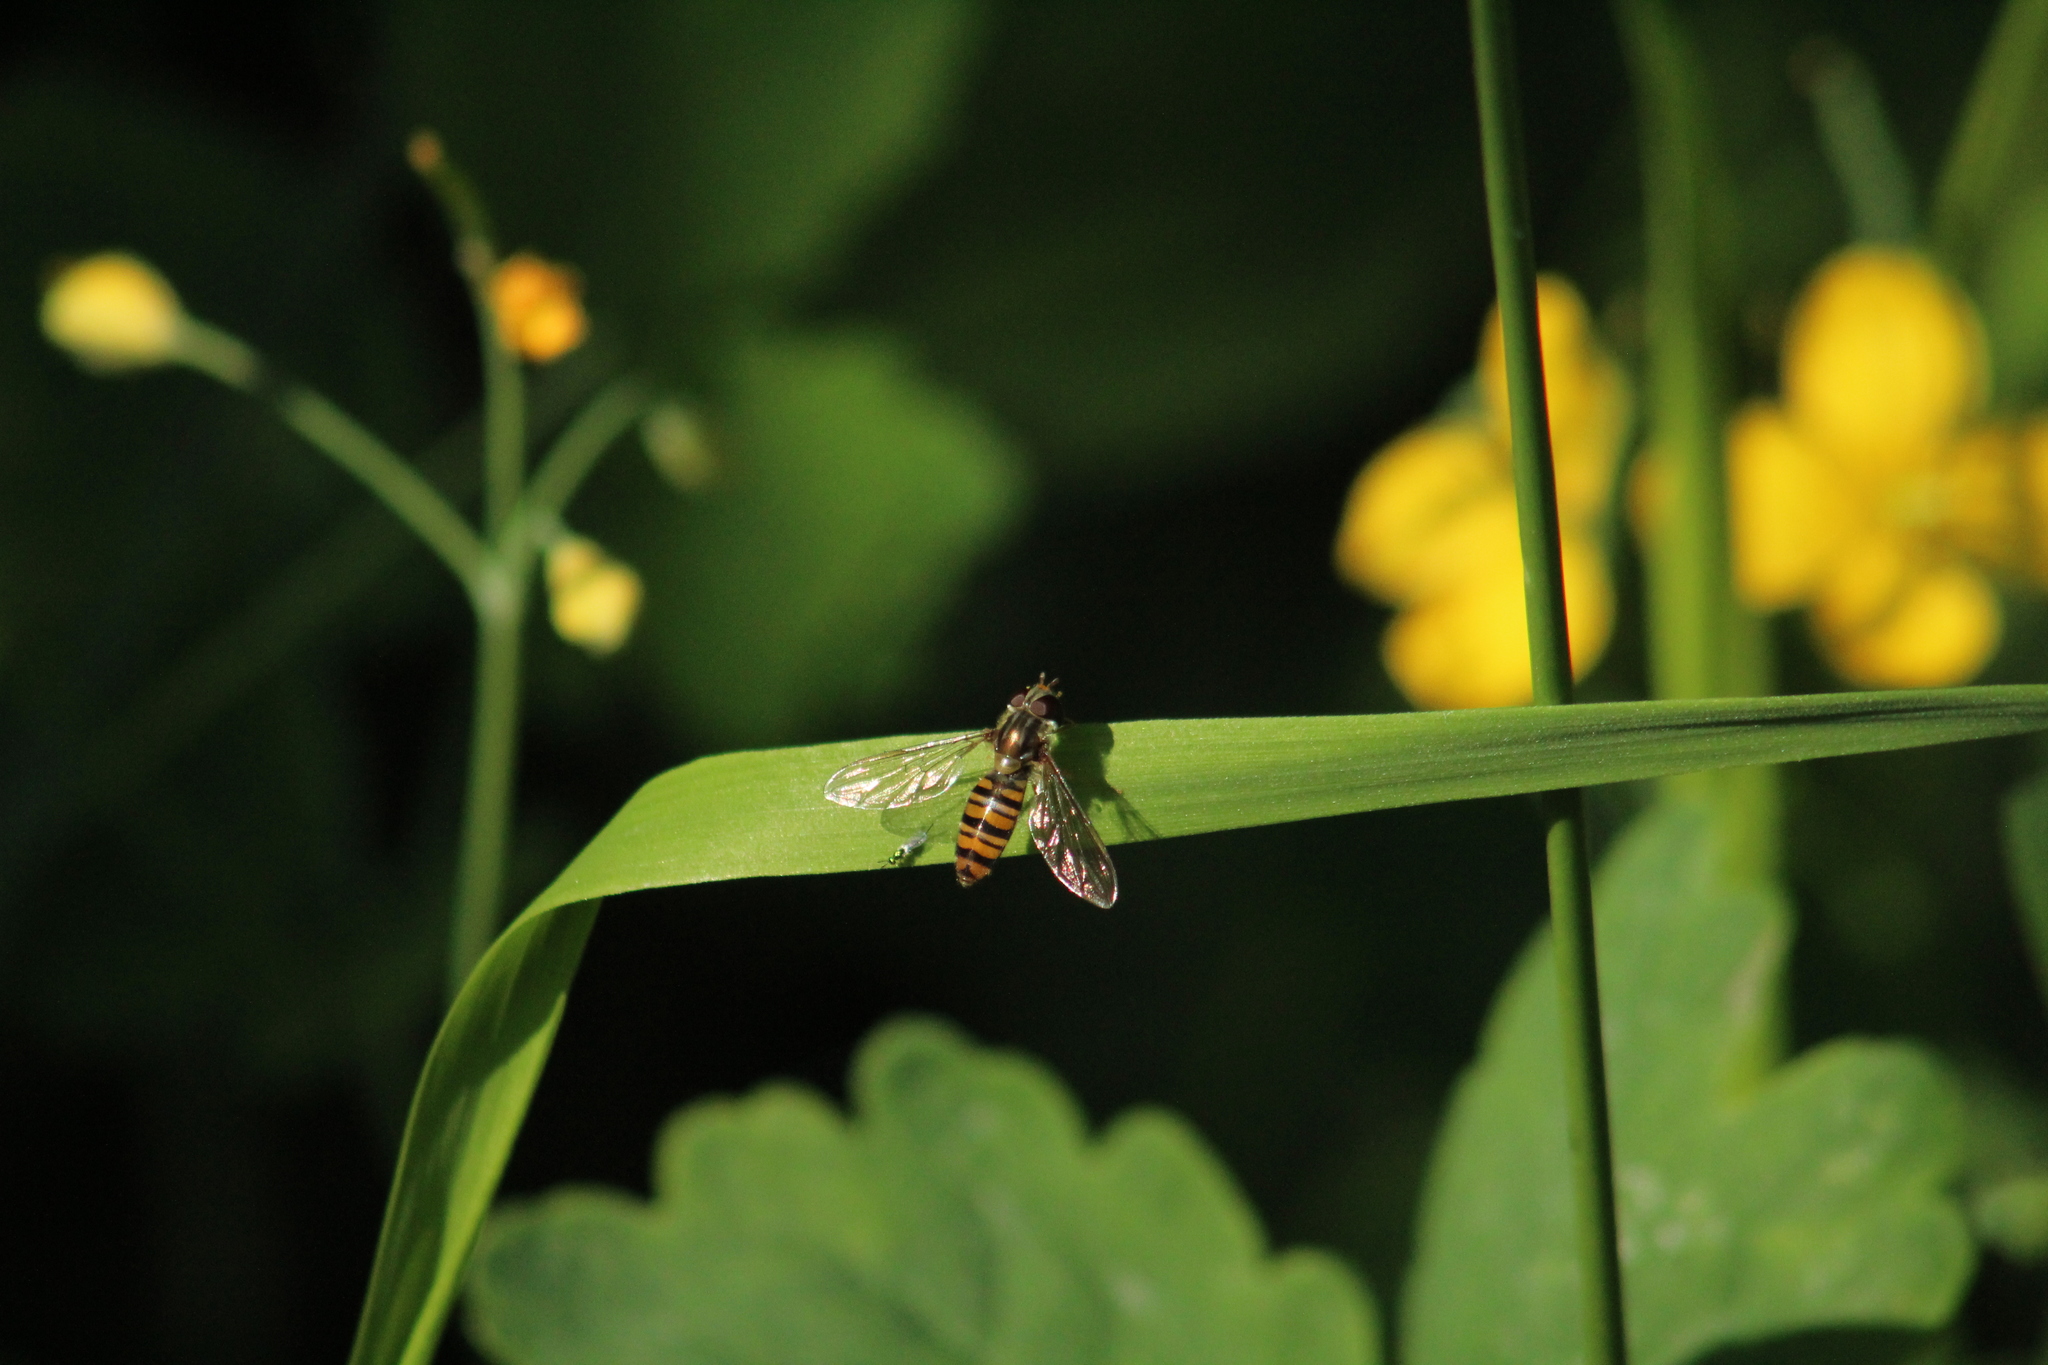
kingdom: Animalia
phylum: Arthropoda
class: Insecta
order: Diptera
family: Syrphidae
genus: Episyrphus
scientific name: Episyrphus balteatus
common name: Marmalade hoverfly
